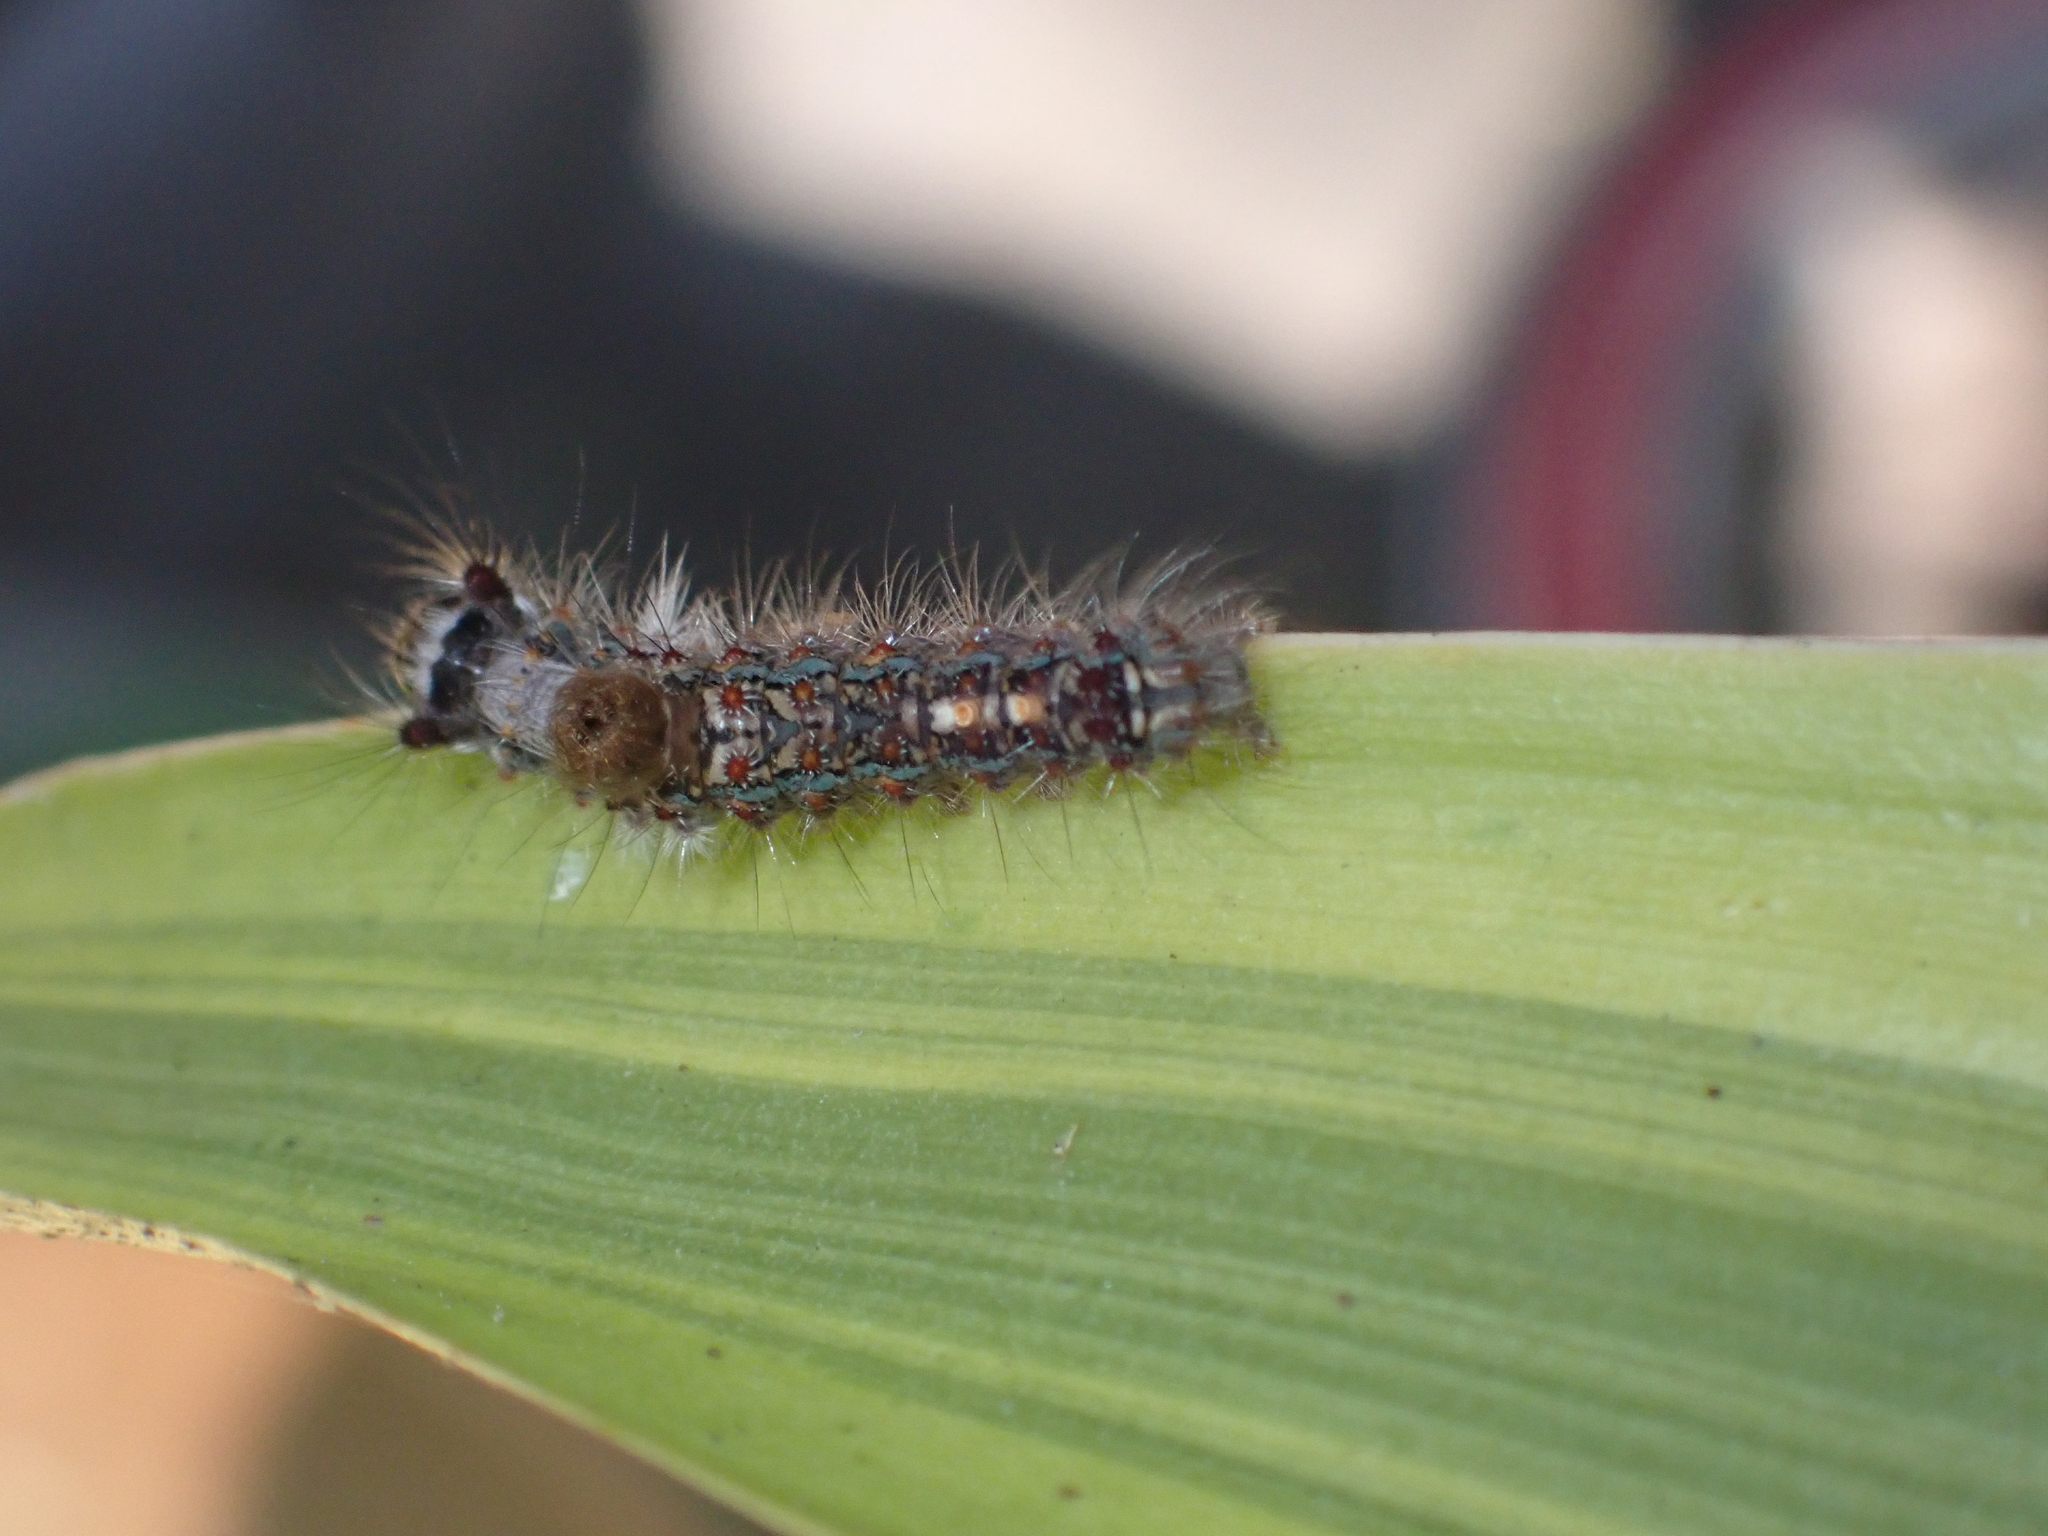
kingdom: Animalia
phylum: Arthropoda
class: Insecta
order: Lepidoptera
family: Erebidae
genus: Perina
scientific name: Perina nuda
